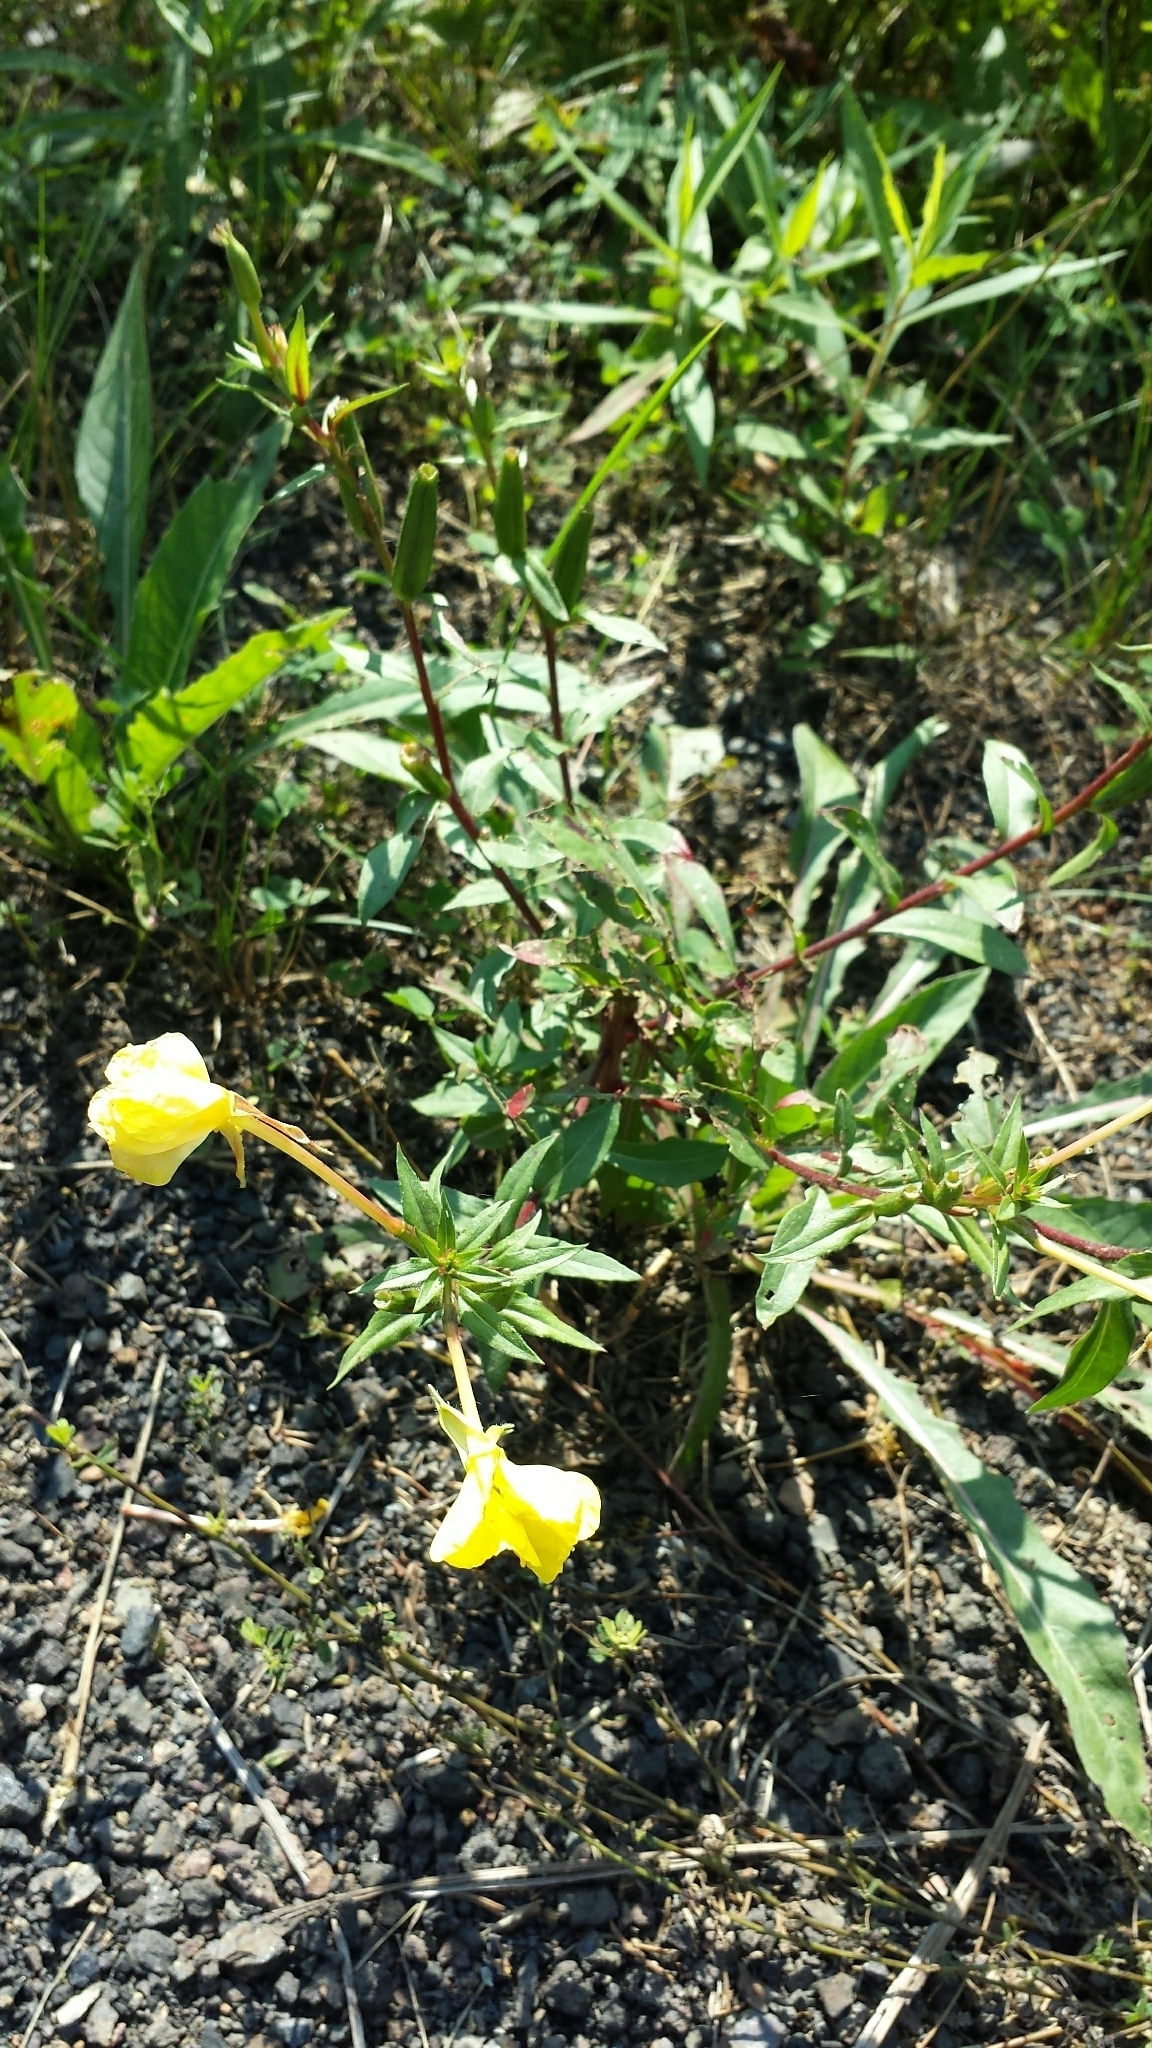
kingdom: Plantae
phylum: Tracheophyta
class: Magnoliopsida
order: Myrtales
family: Onagraceae
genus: Oenothera
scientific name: Oenothera biennis
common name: Common evening-primrose
